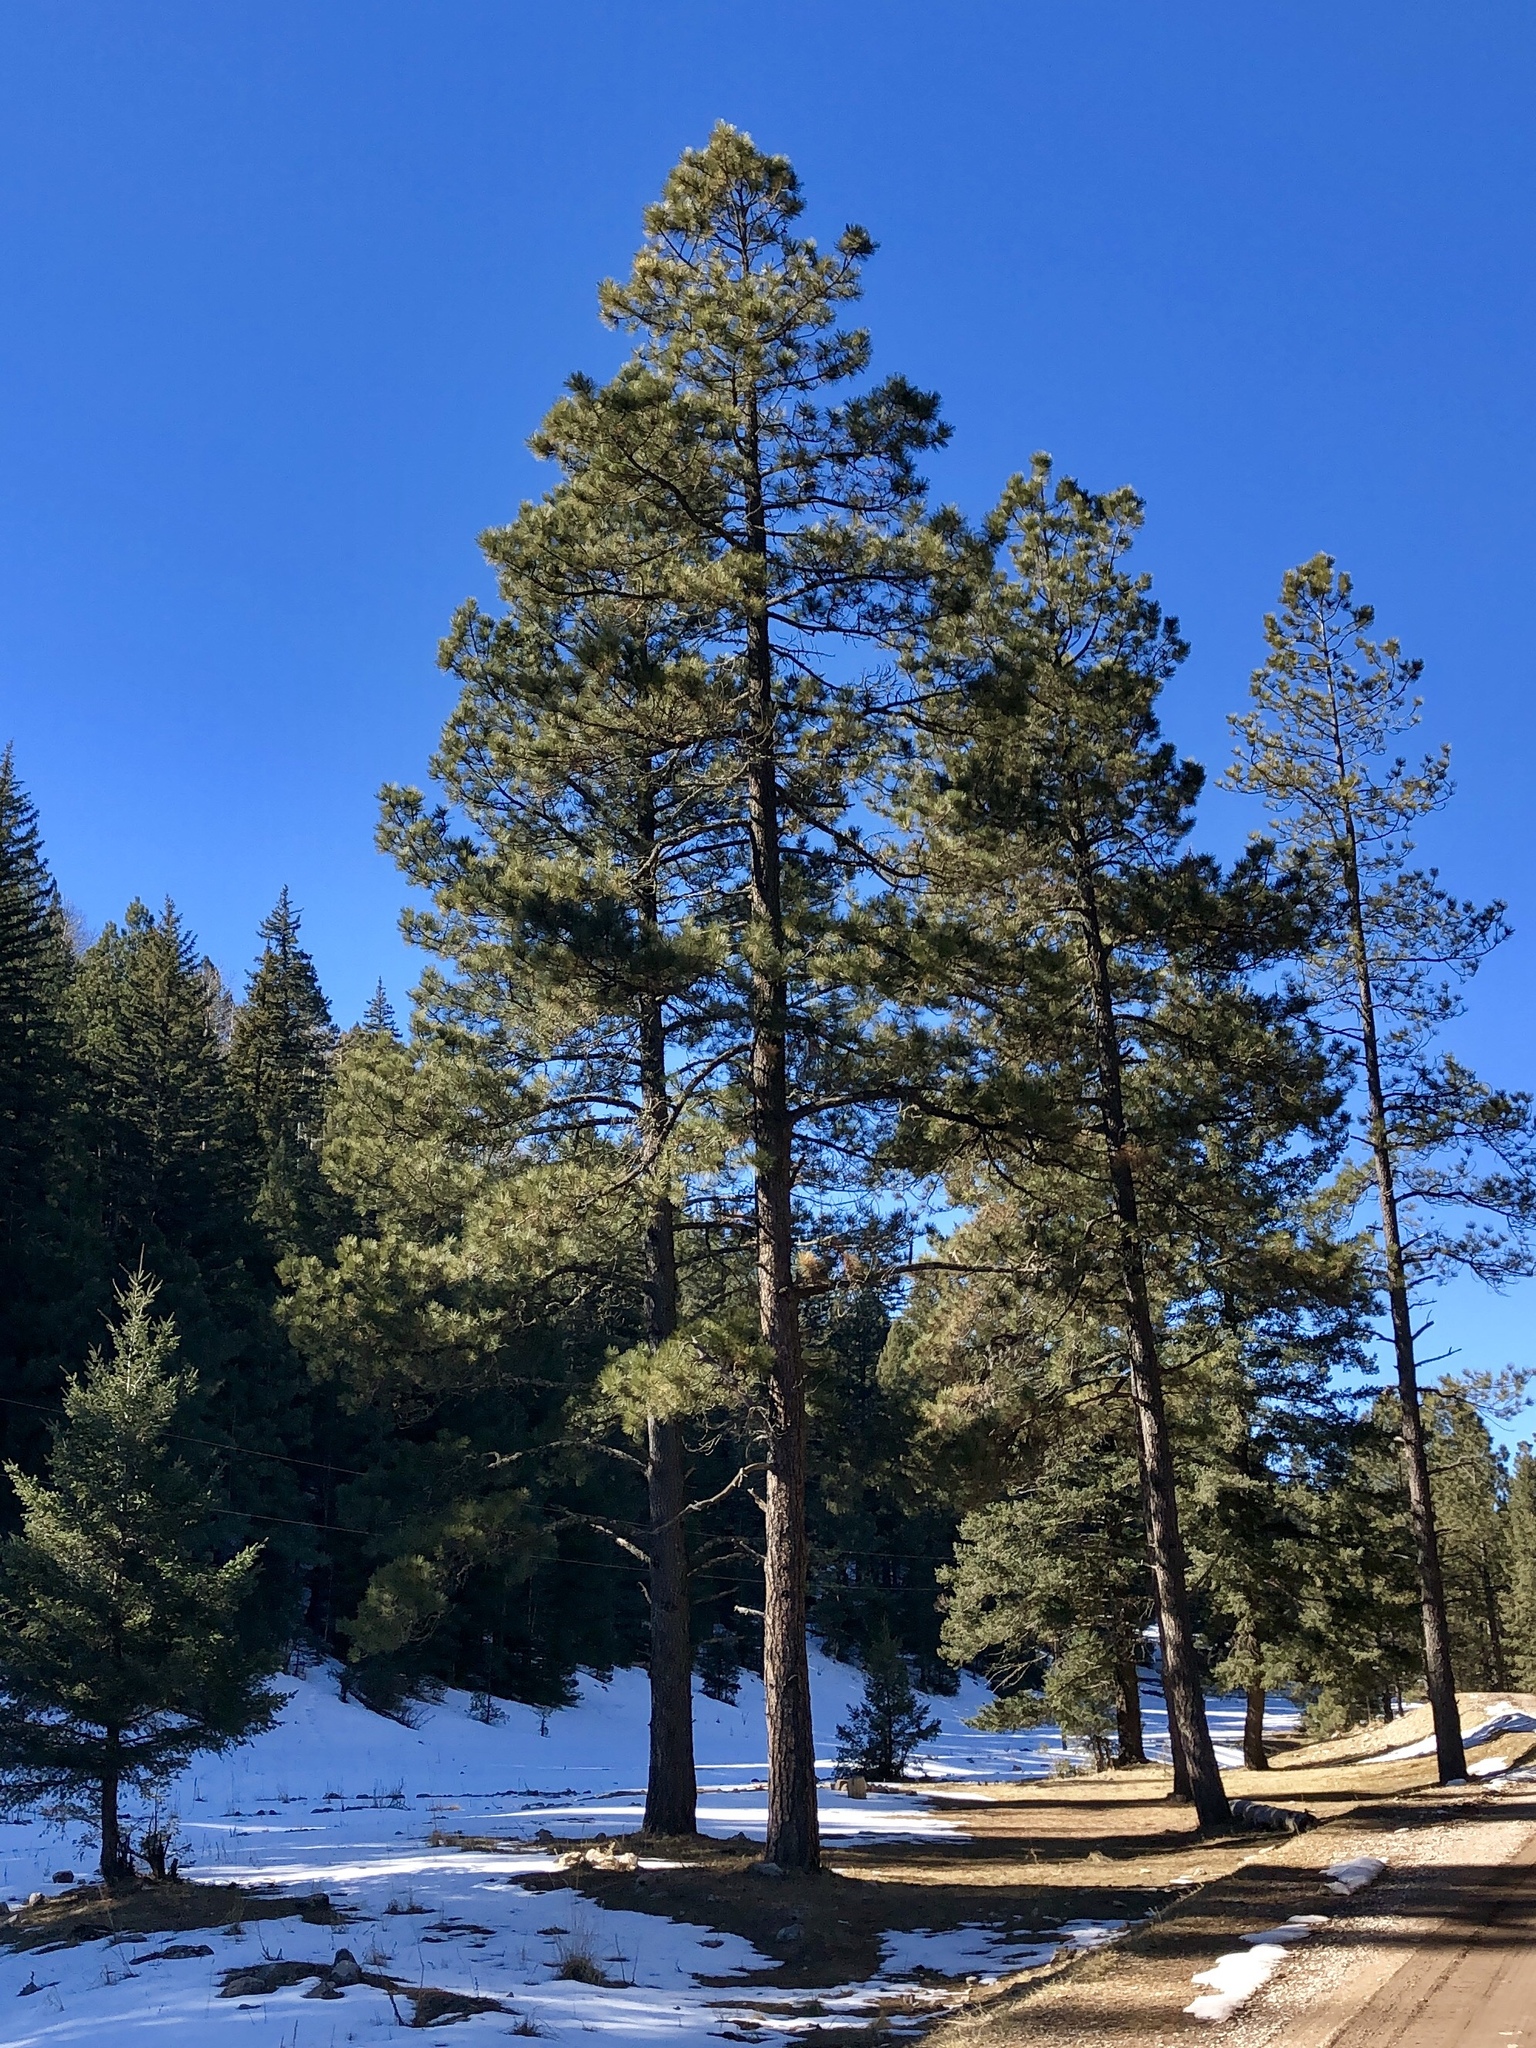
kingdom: Plantae
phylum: Tracheophyta
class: Pinopsida
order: Pinales
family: Pinaceae
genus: Pinus
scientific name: Pinus ponderosa
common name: Western yellow-pine
